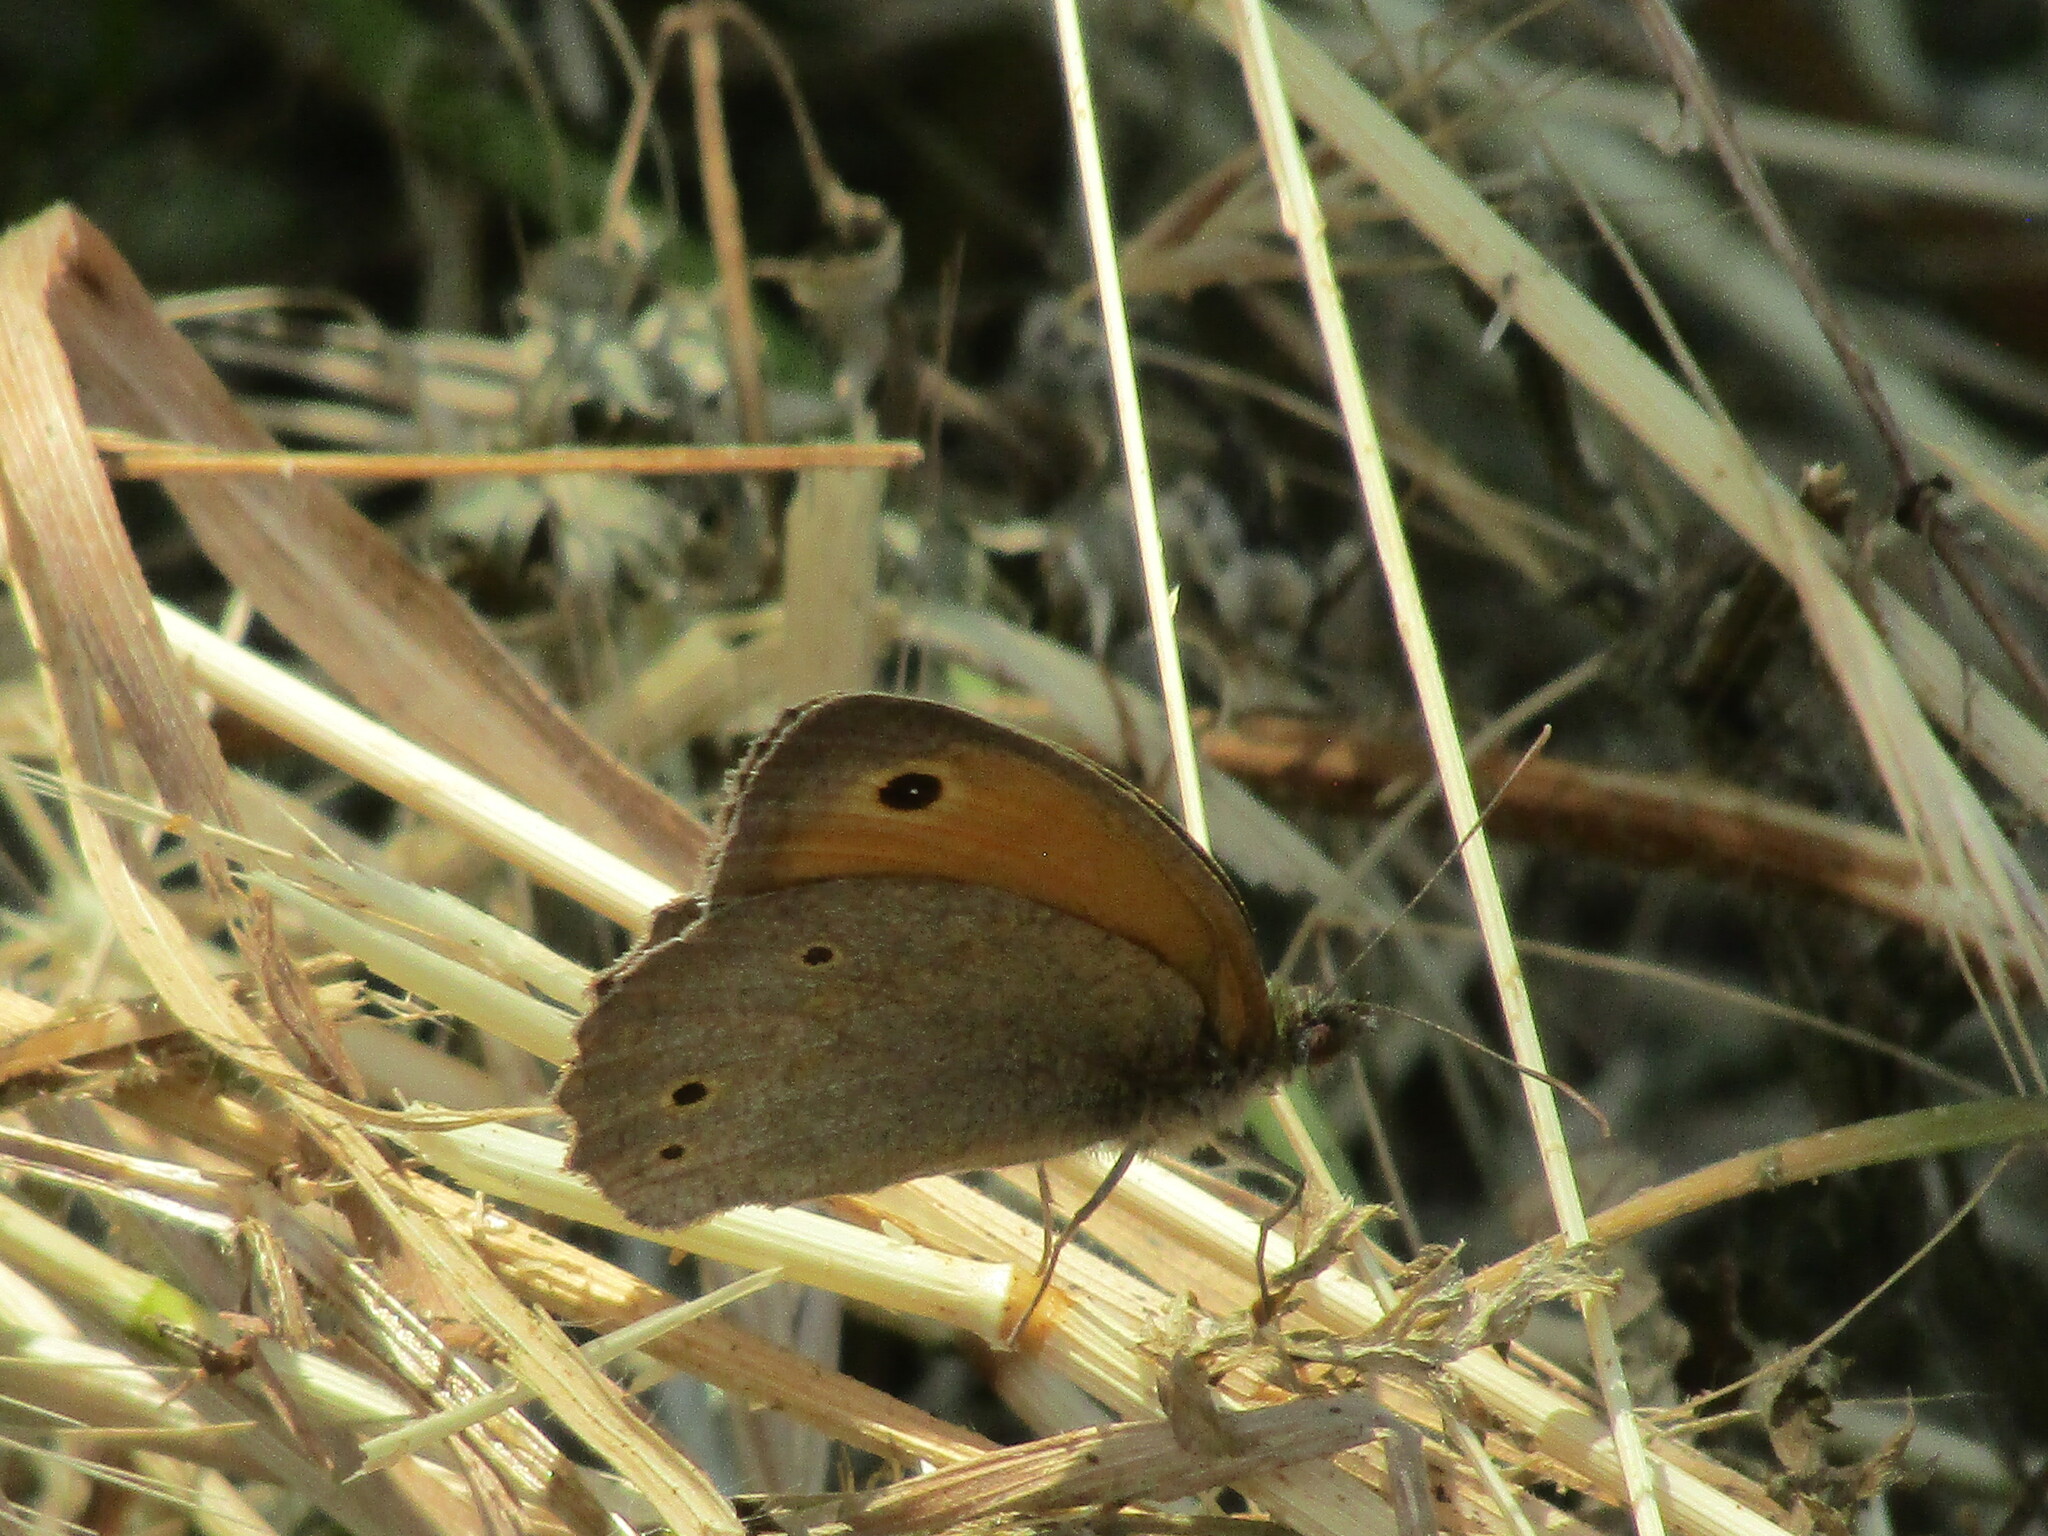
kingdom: Animalia
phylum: Arthropoda
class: Insecta
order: Lepidoptera
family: Nymphalidae
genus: Maniola
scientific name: Maniola jurtina
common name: Meadow brown
